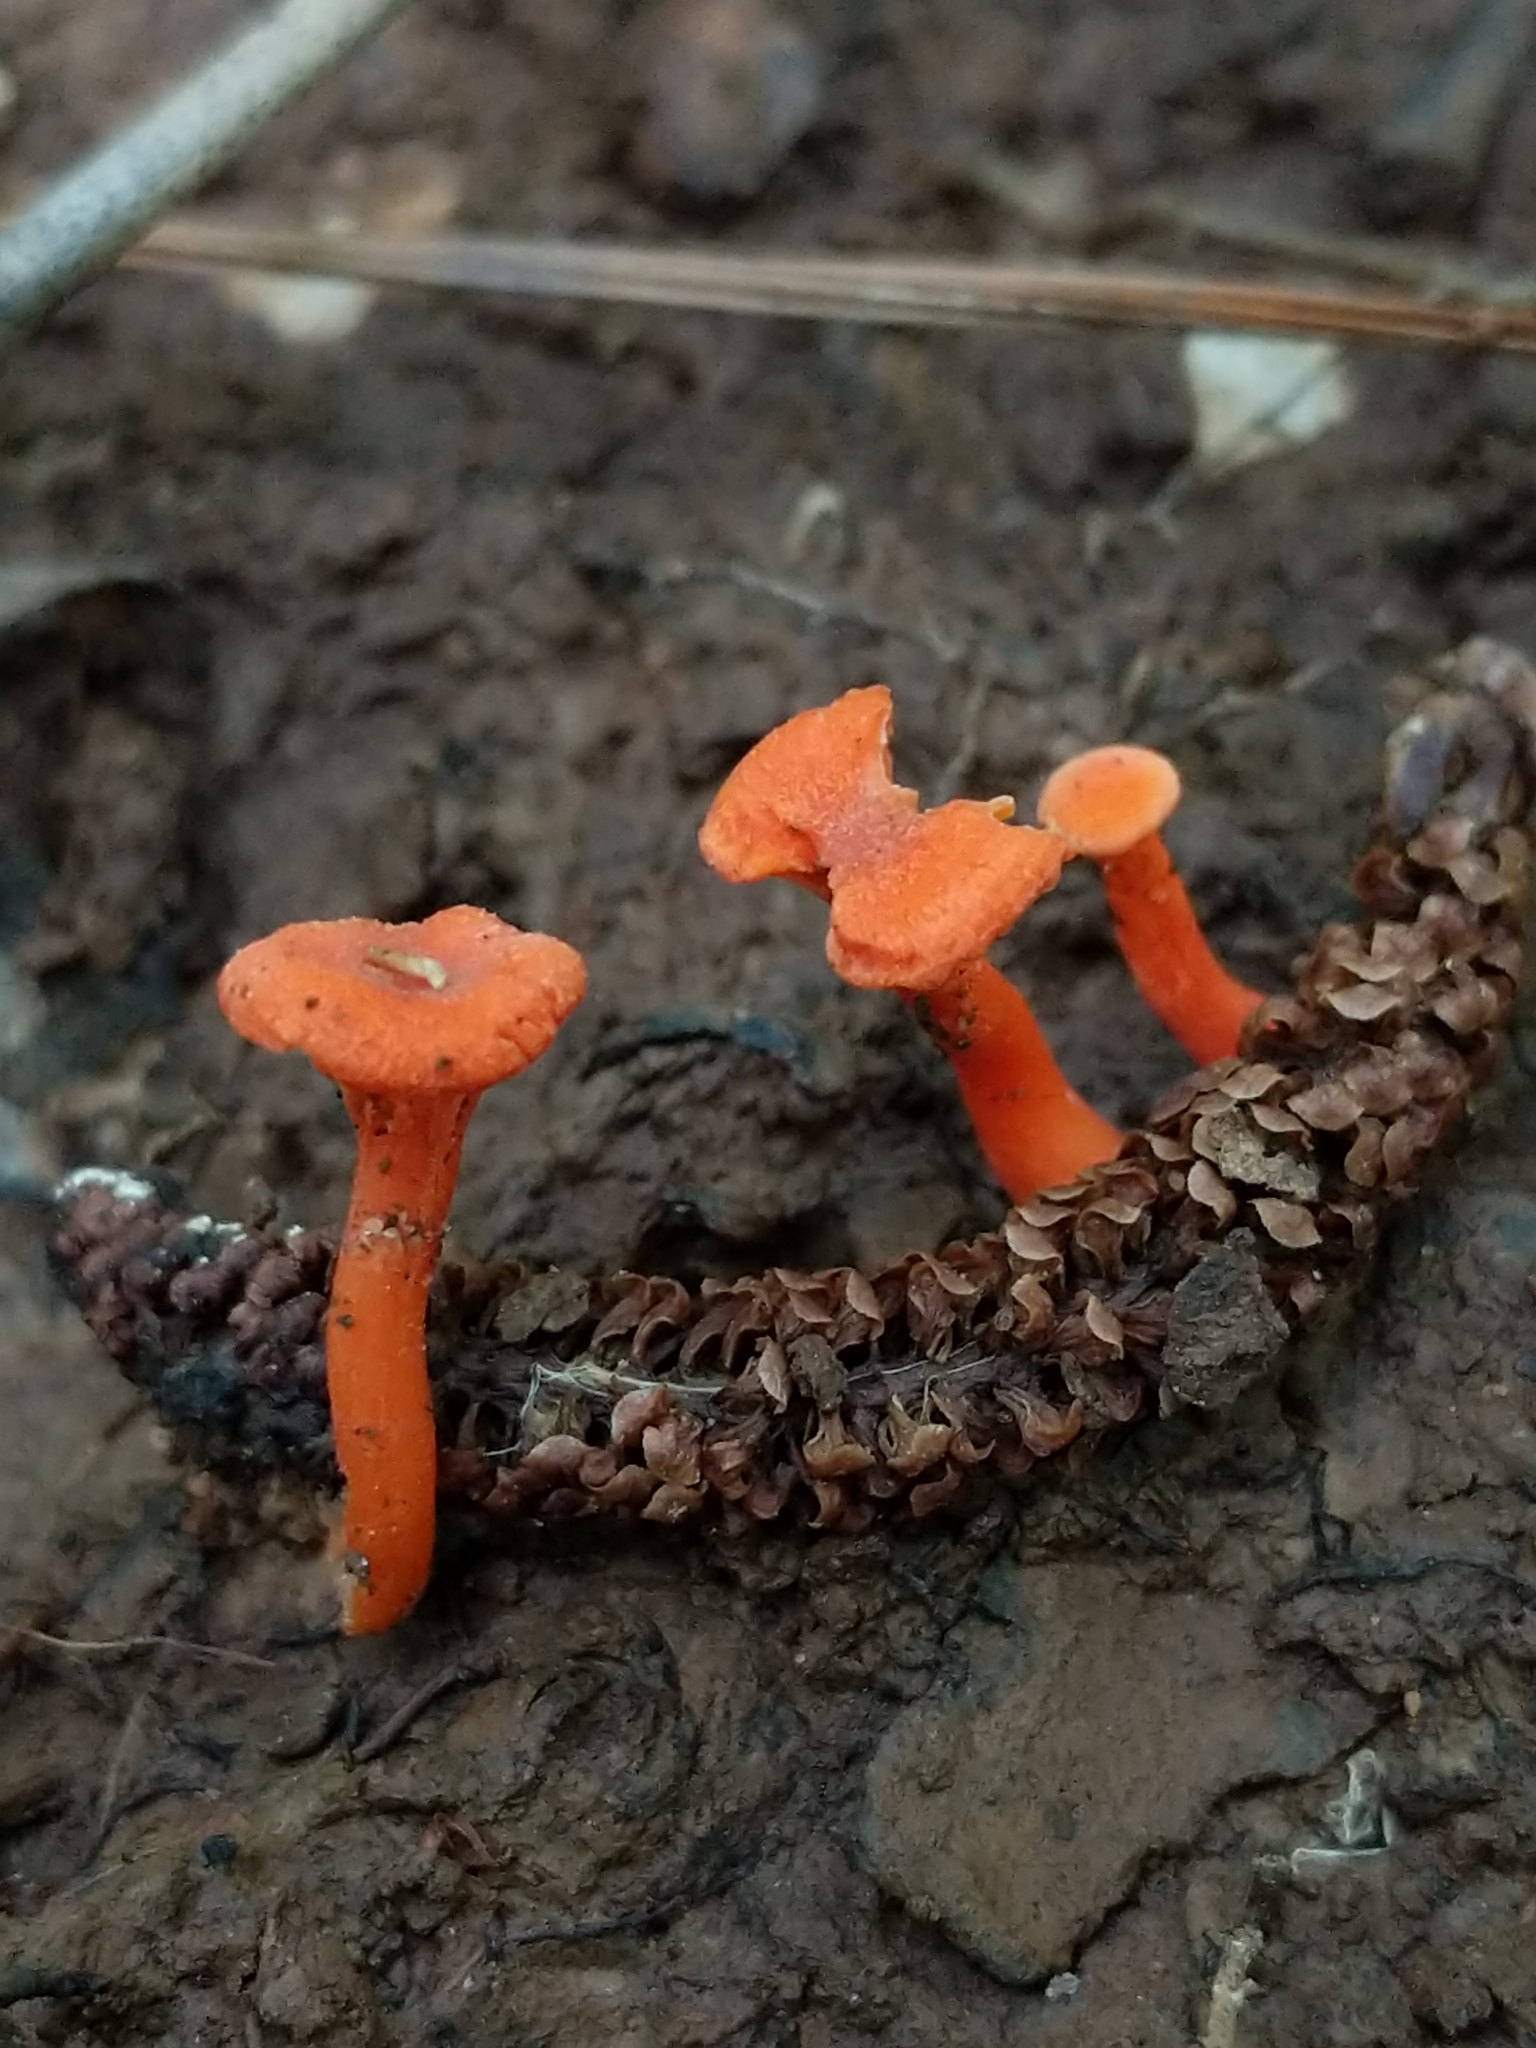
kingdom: Fungi
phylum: Basidiomycota
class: Agaricomycetes
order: Cantharellales
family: Hydnaceae
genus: Cantharellus
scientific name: Cantharellus cinnabarinus
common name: Cinnabar chanterelle
